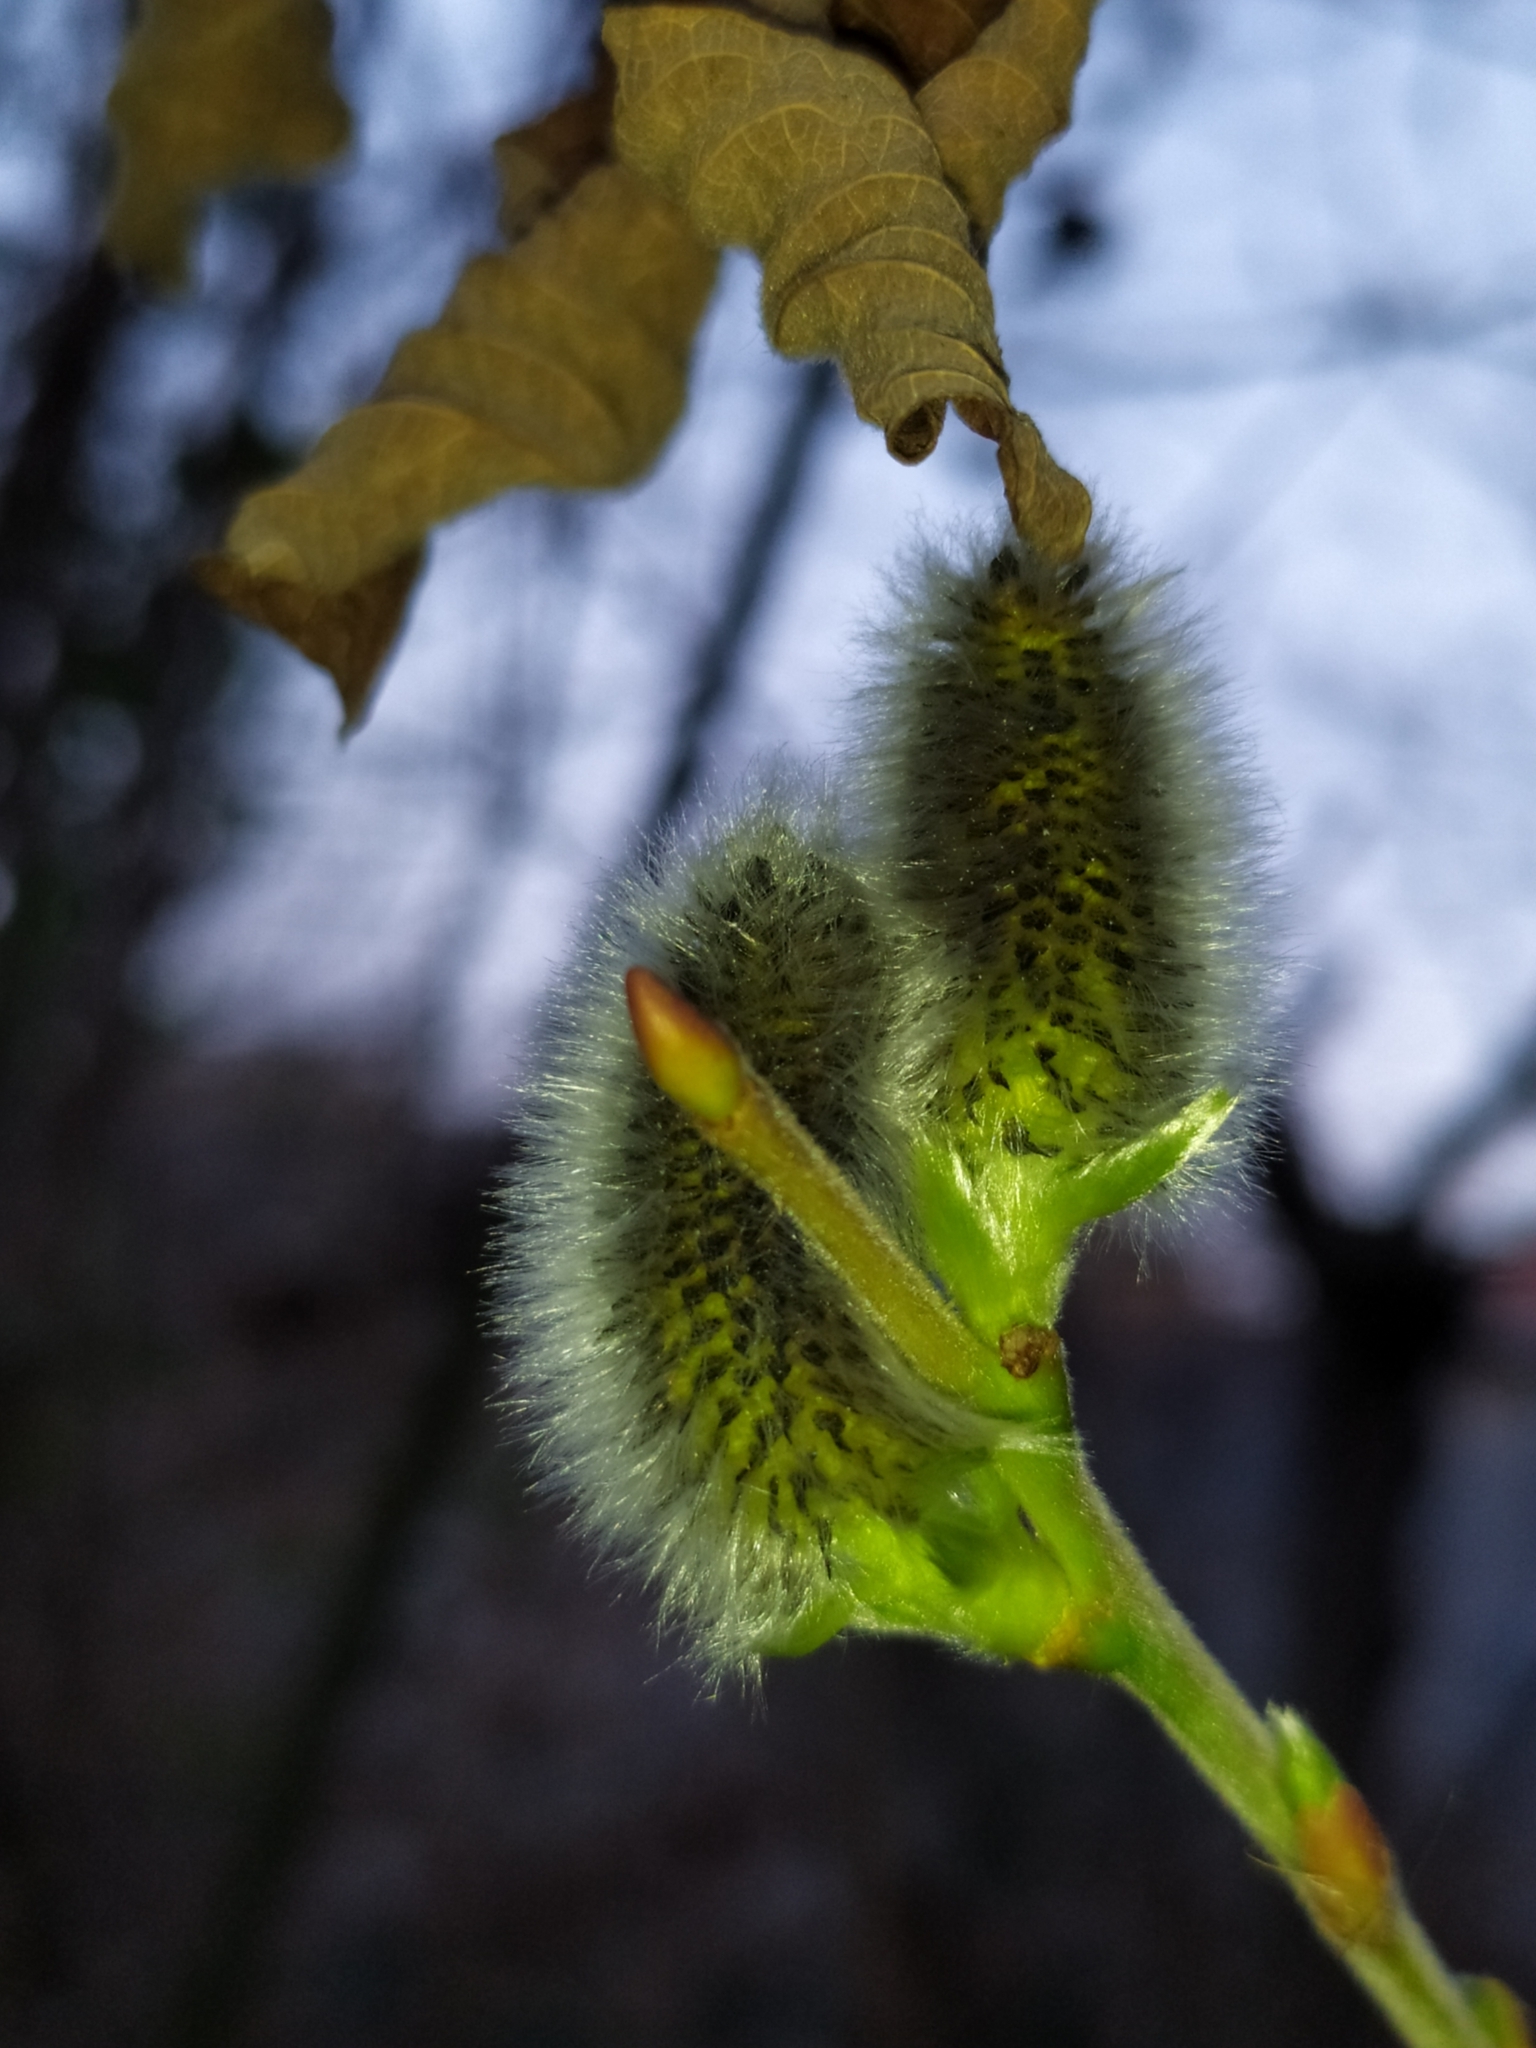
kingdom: Plantae
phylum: Tracheophyta
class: Magnoliopsida
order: Malpighiales
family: Salicaceae
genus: Salix
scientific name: Salix caprea
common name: Goat willow
